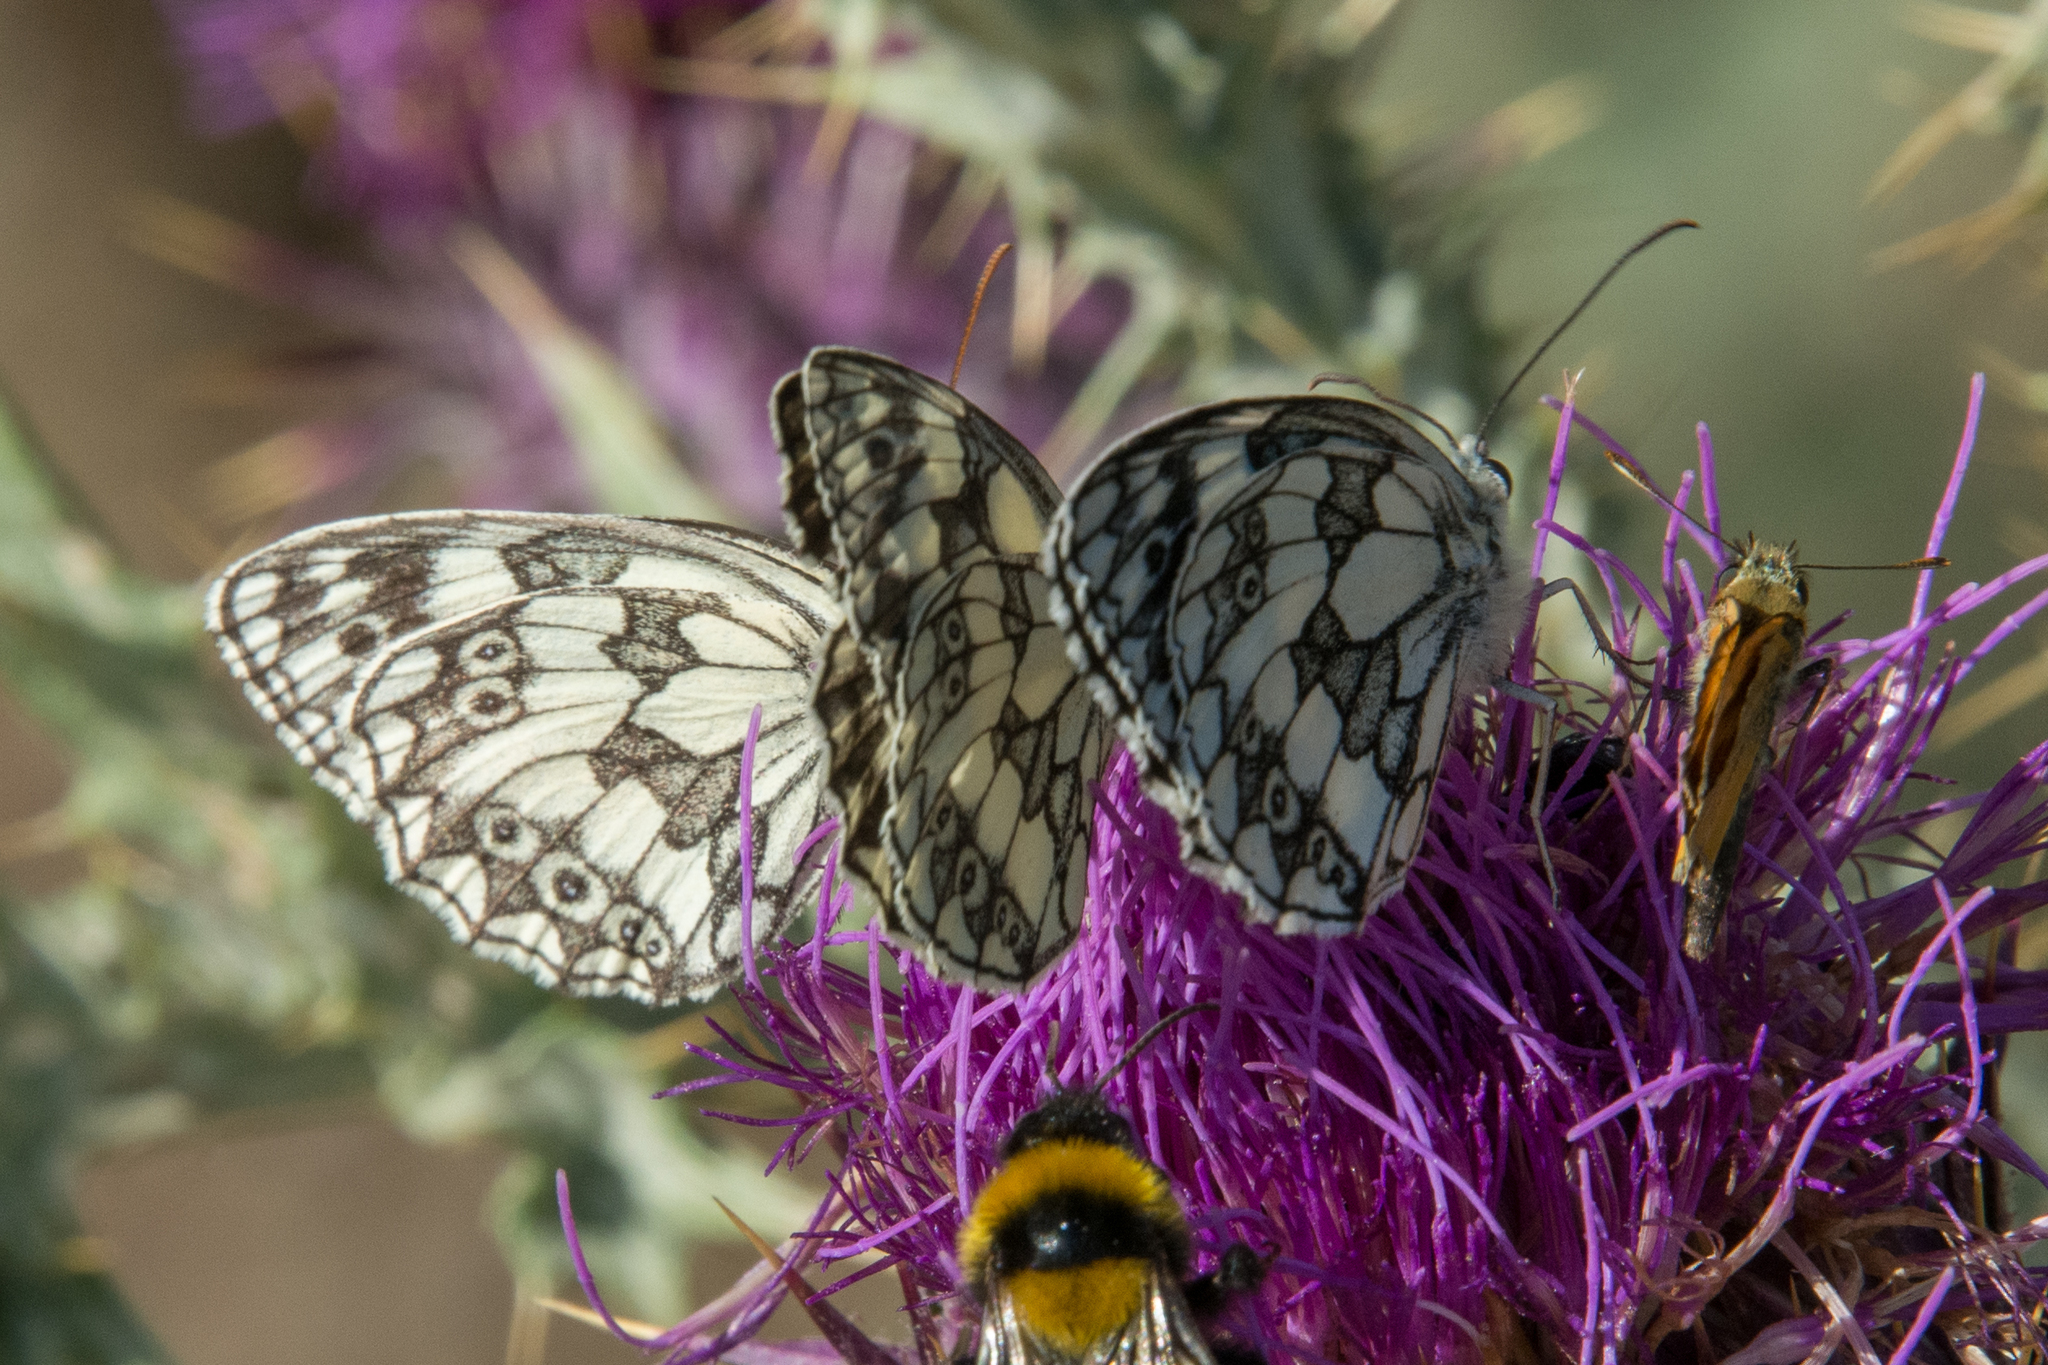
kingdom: Animalia
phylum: Arthropoda
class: Insecta
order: Lepidoptera
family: Nymphalidae
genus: Melanargia
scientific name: Melanargia galathea
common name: Marbled white
